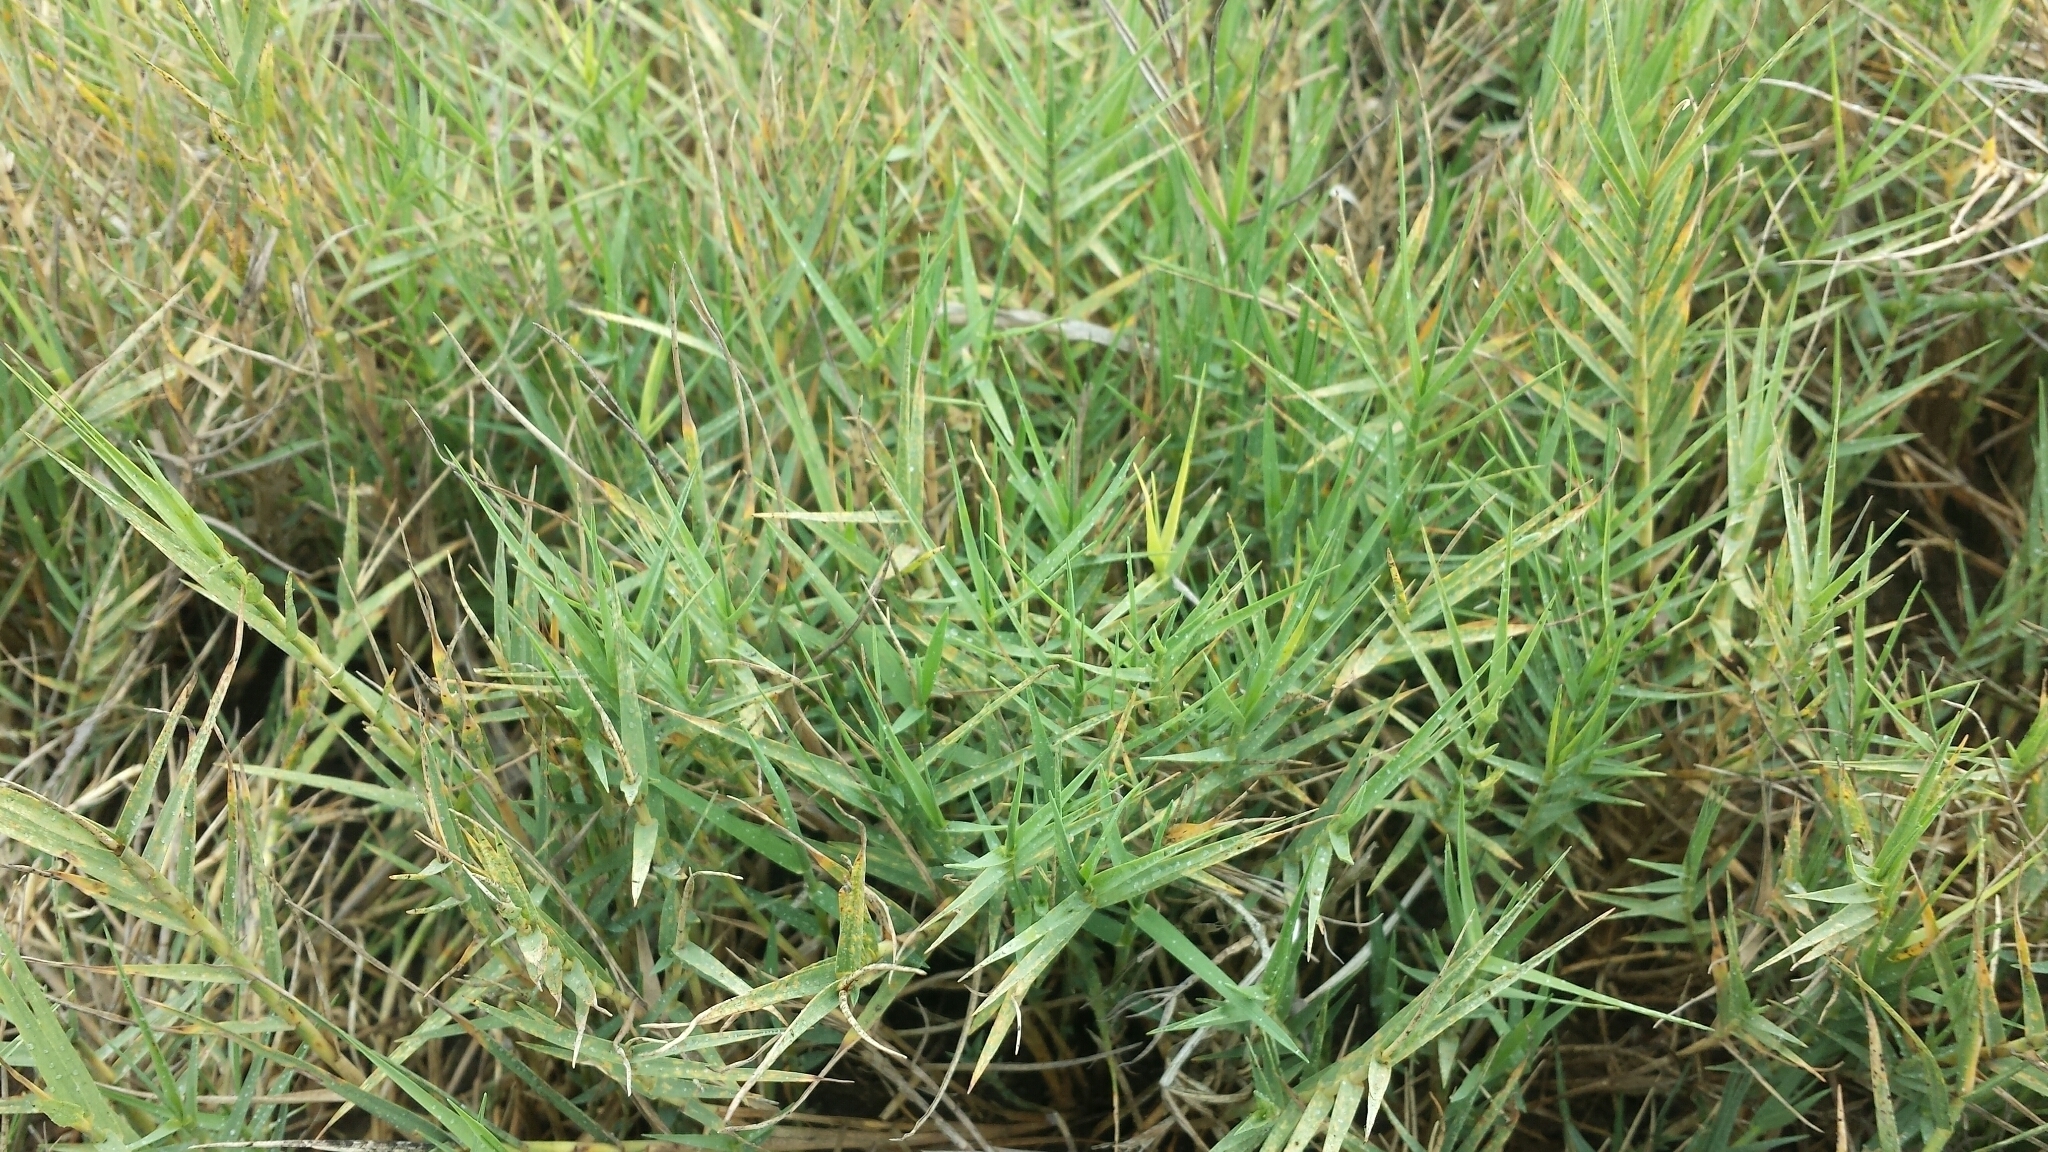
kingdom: Plantae
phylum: Tracheophyta
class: Liliopsida
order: Poales
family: Poaceae
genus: Distichlis
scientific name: Distichlis spicata
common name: Saltgrass
